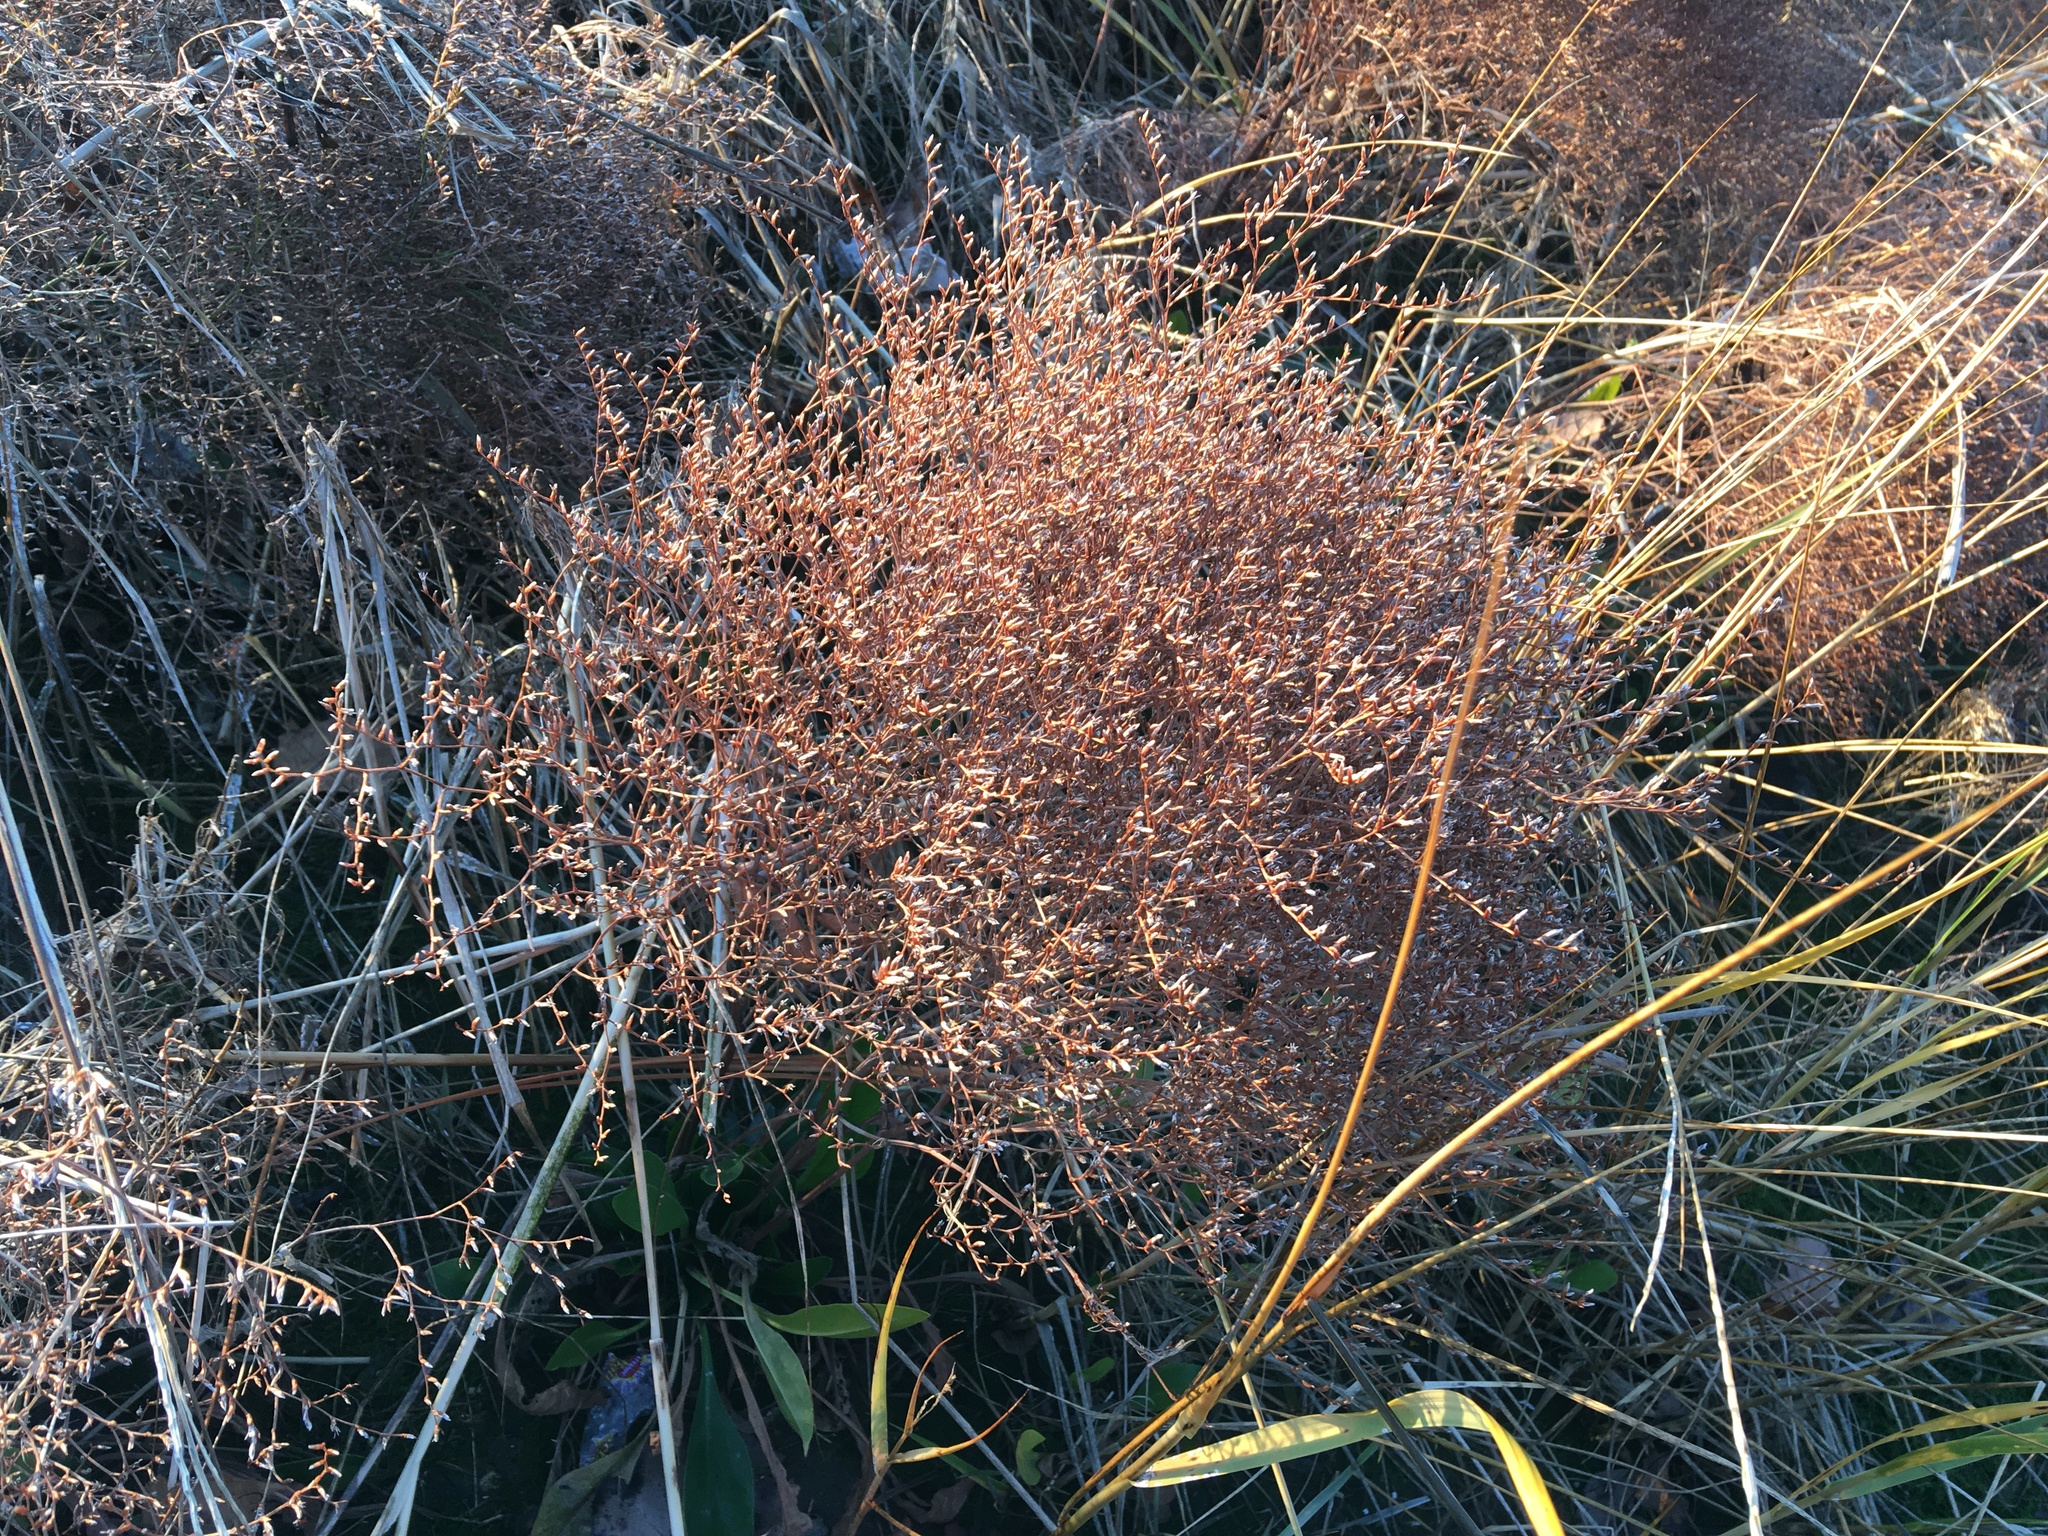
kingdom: Plantae
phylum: Tracheophyta
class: Magnoliopsida
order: Caryophyllales
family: Plumbaginaceae
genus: Limonium
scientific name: Limonium carolinianum
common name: Carolina sea lavender
